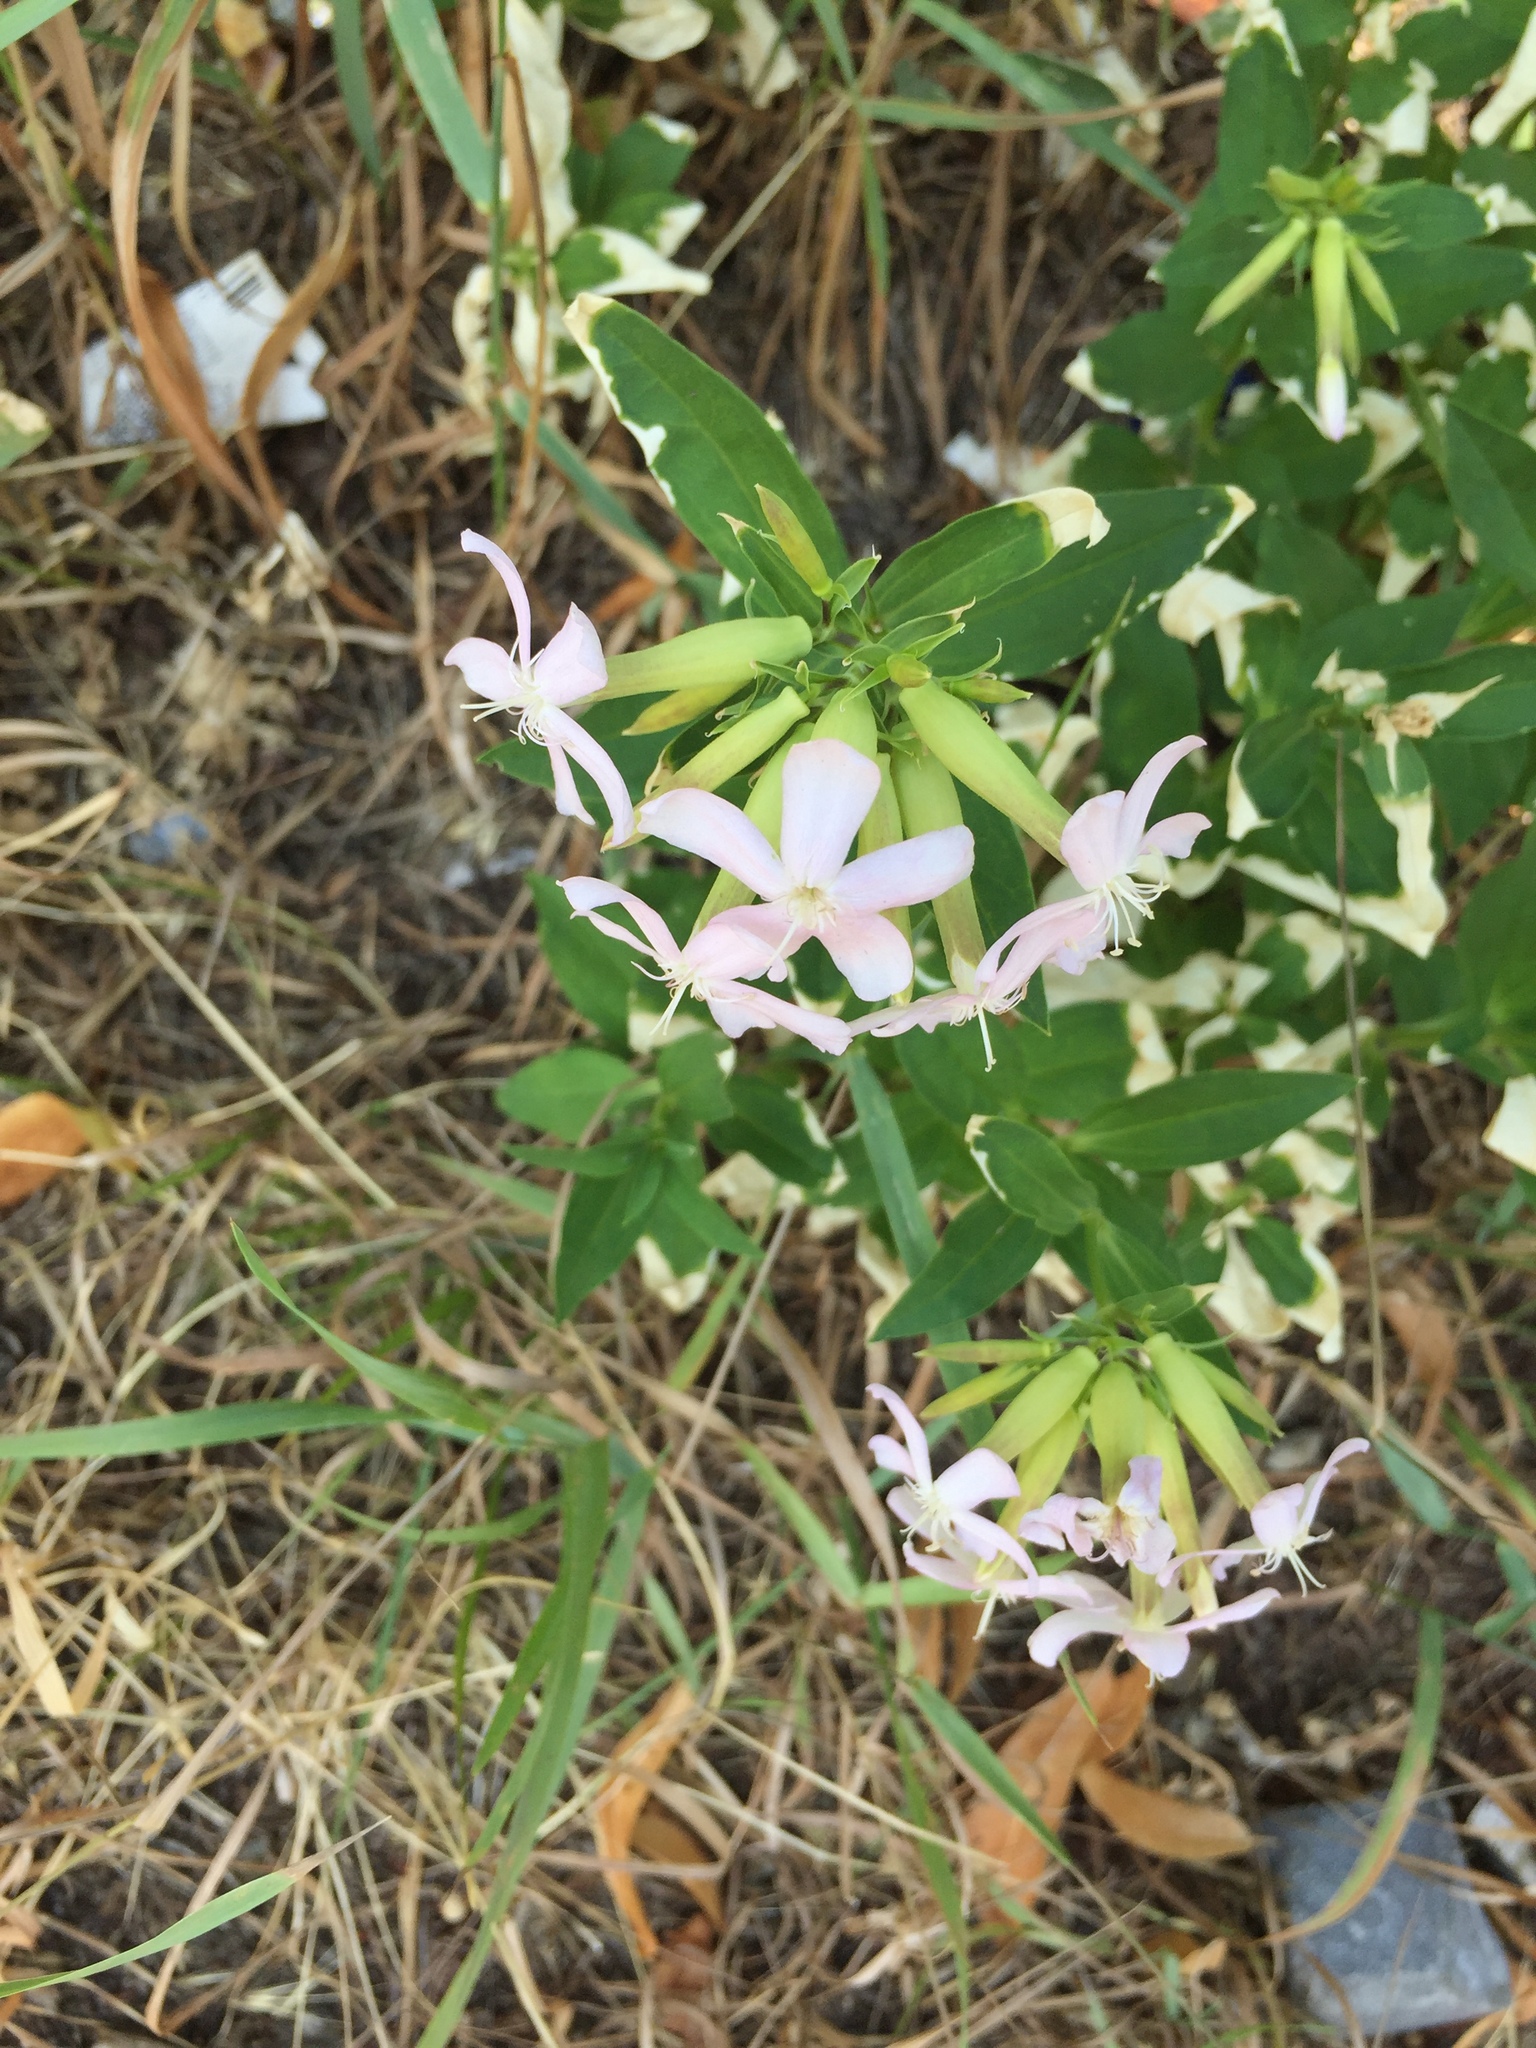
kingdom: Plantae
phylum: Tracheophyta
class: Magnoliopsida
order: Caryophyllales
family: Caryophyllaceae
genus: Saponaria
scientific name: Saponaria officinalis
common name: Soapwort
